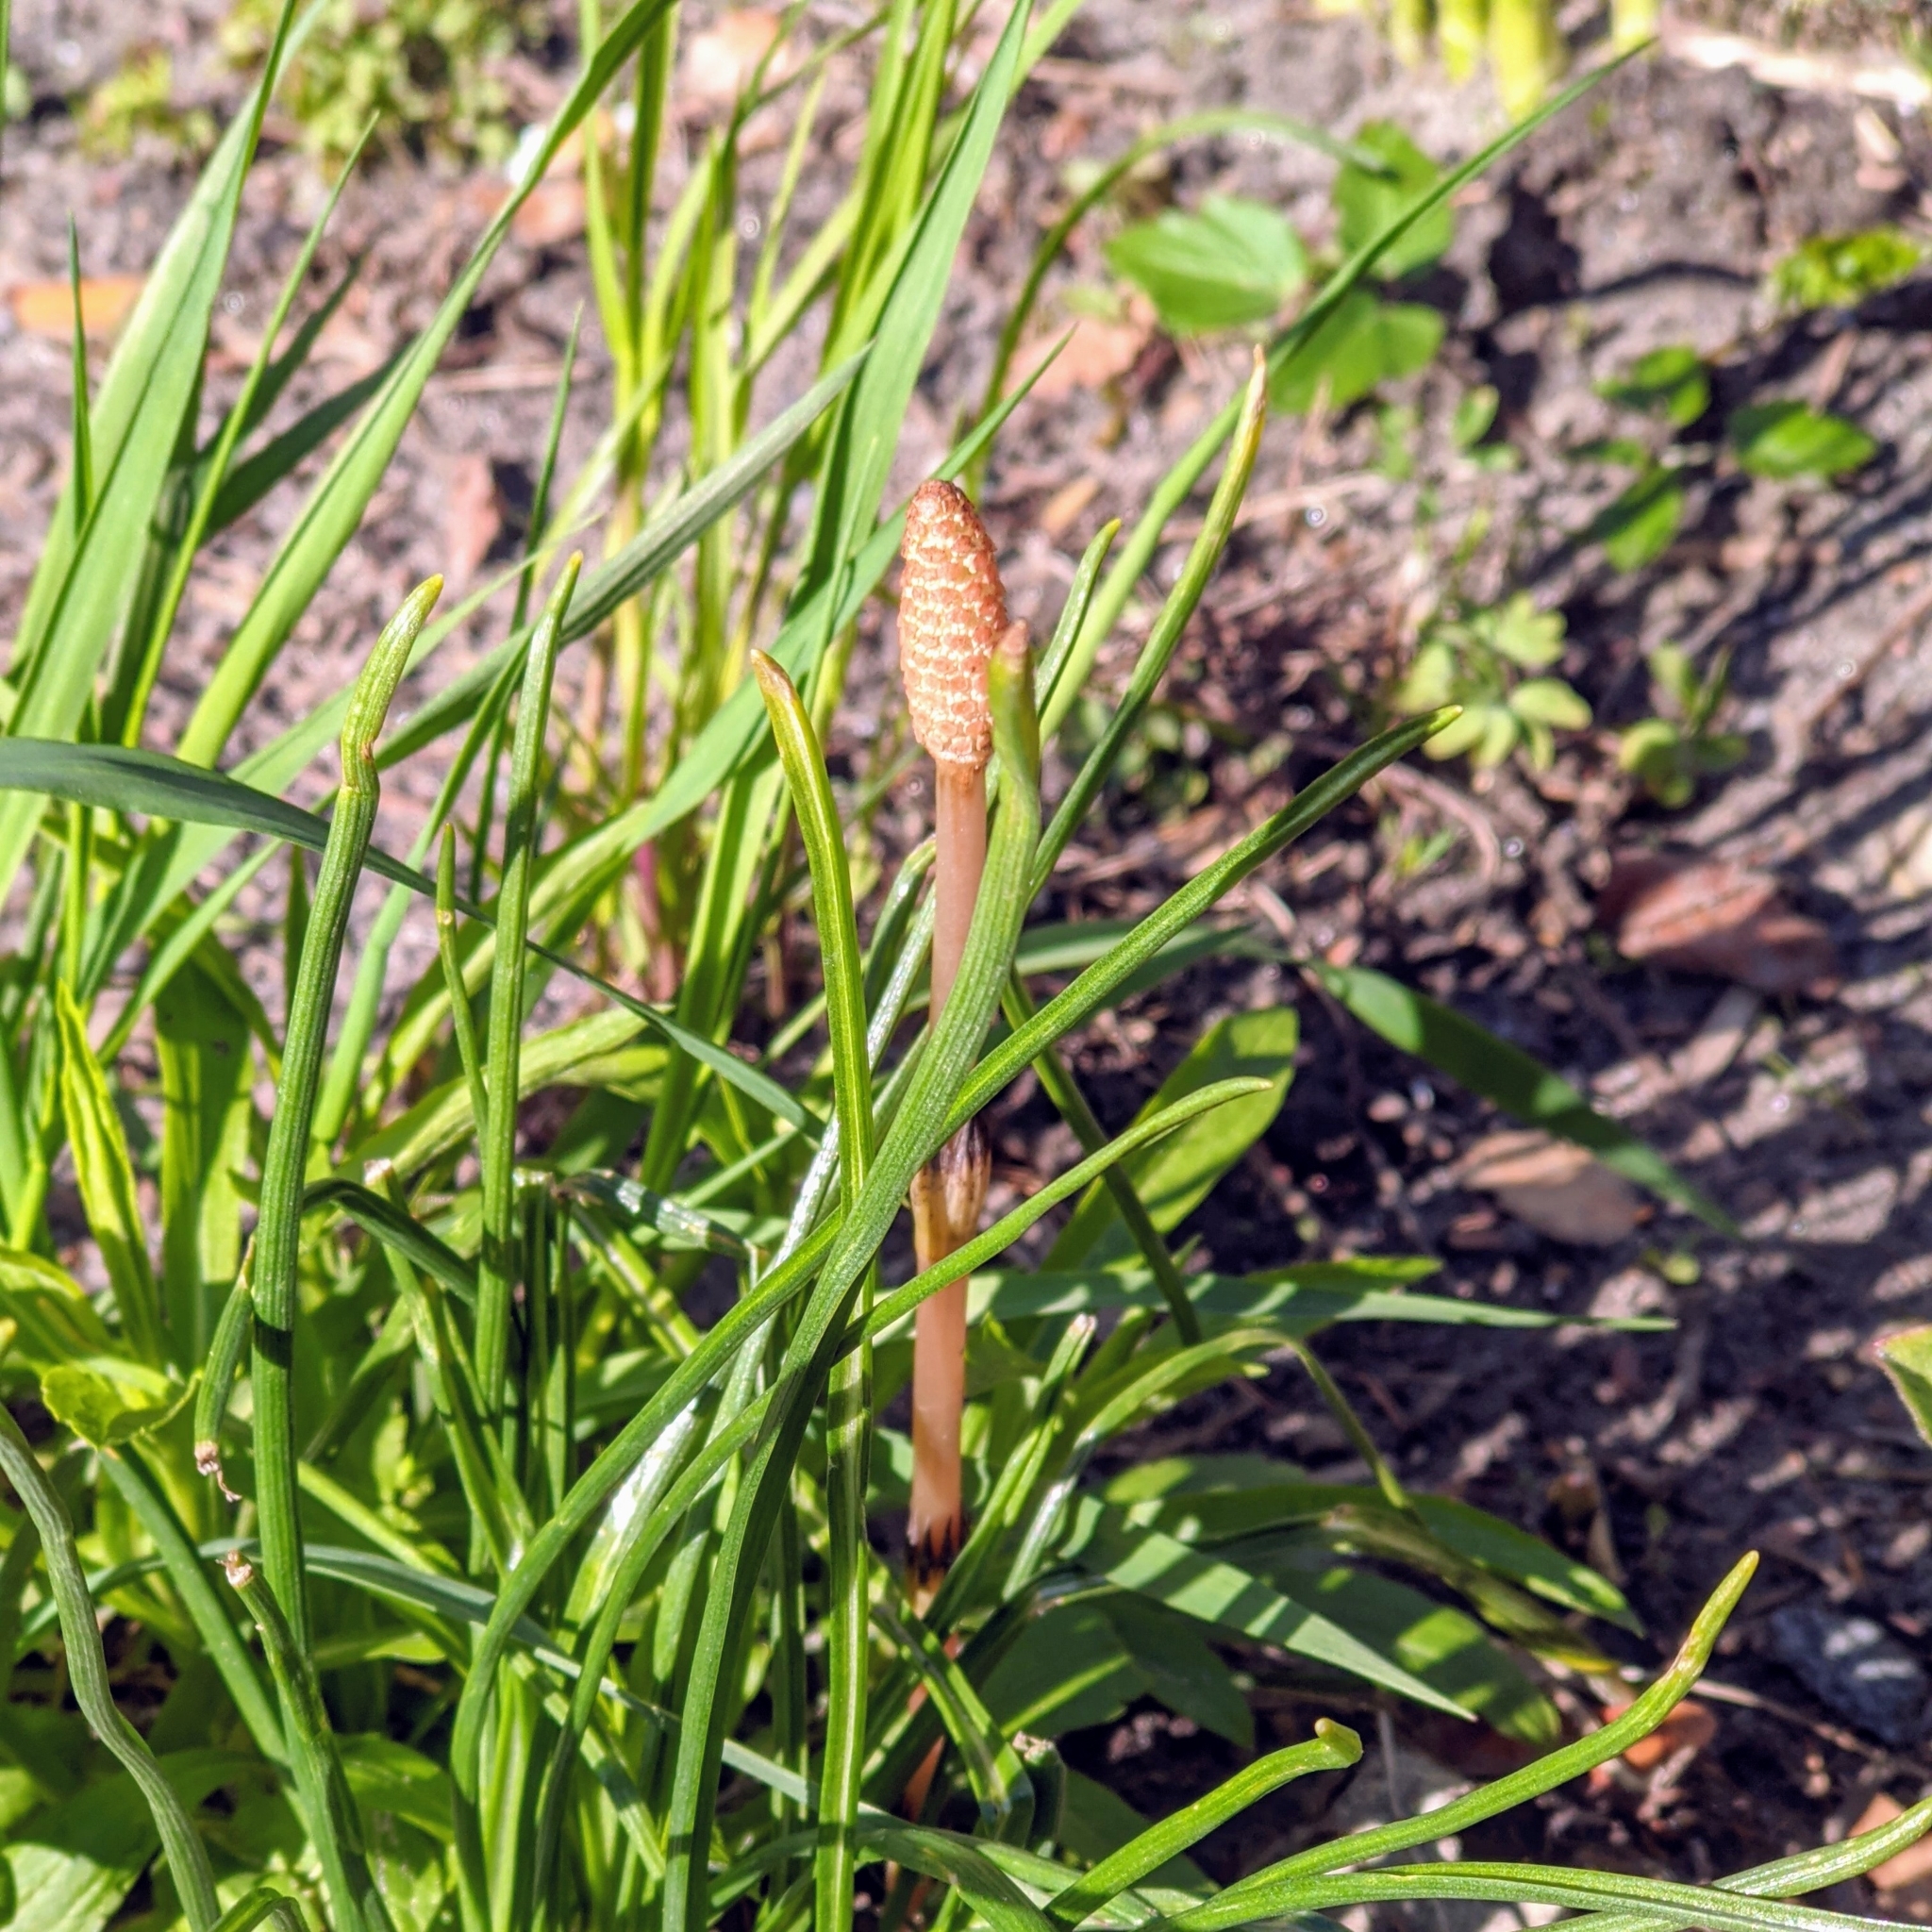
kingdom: Plantae
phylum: Tracheophyta
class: Polypodiopsida
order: Equisetales
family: Equisetaceae
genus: Equisetum
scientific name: Equisetum arvense
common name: Field horsetail
